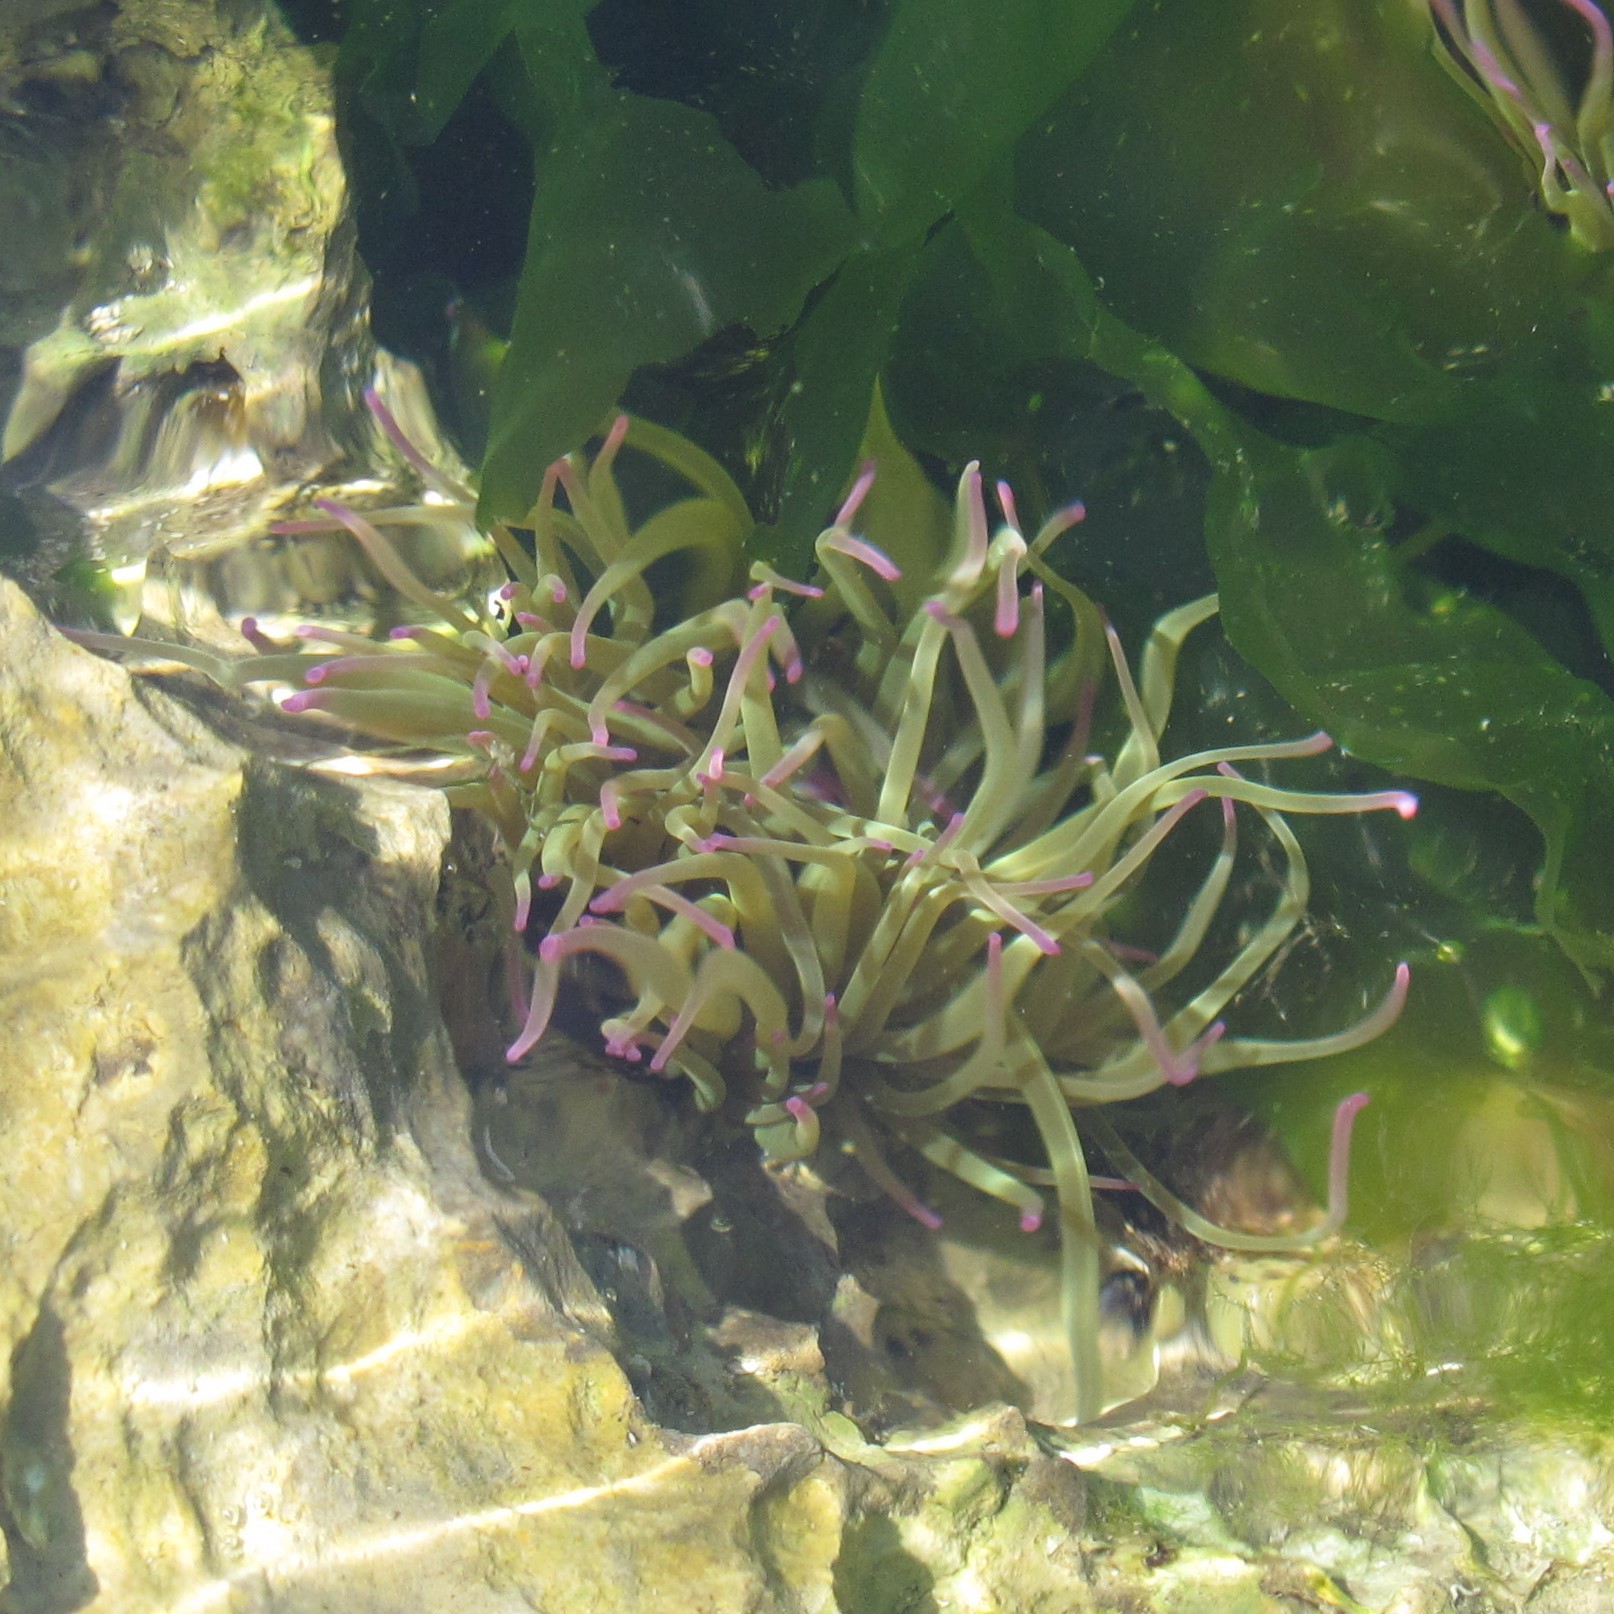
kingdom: Animalia
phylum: Cnidaria
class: Anthozoa
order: Actiniaria
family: Actiniidae
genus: Anemonia
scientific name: Anemonia viridis
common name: Snakelocks anemone
